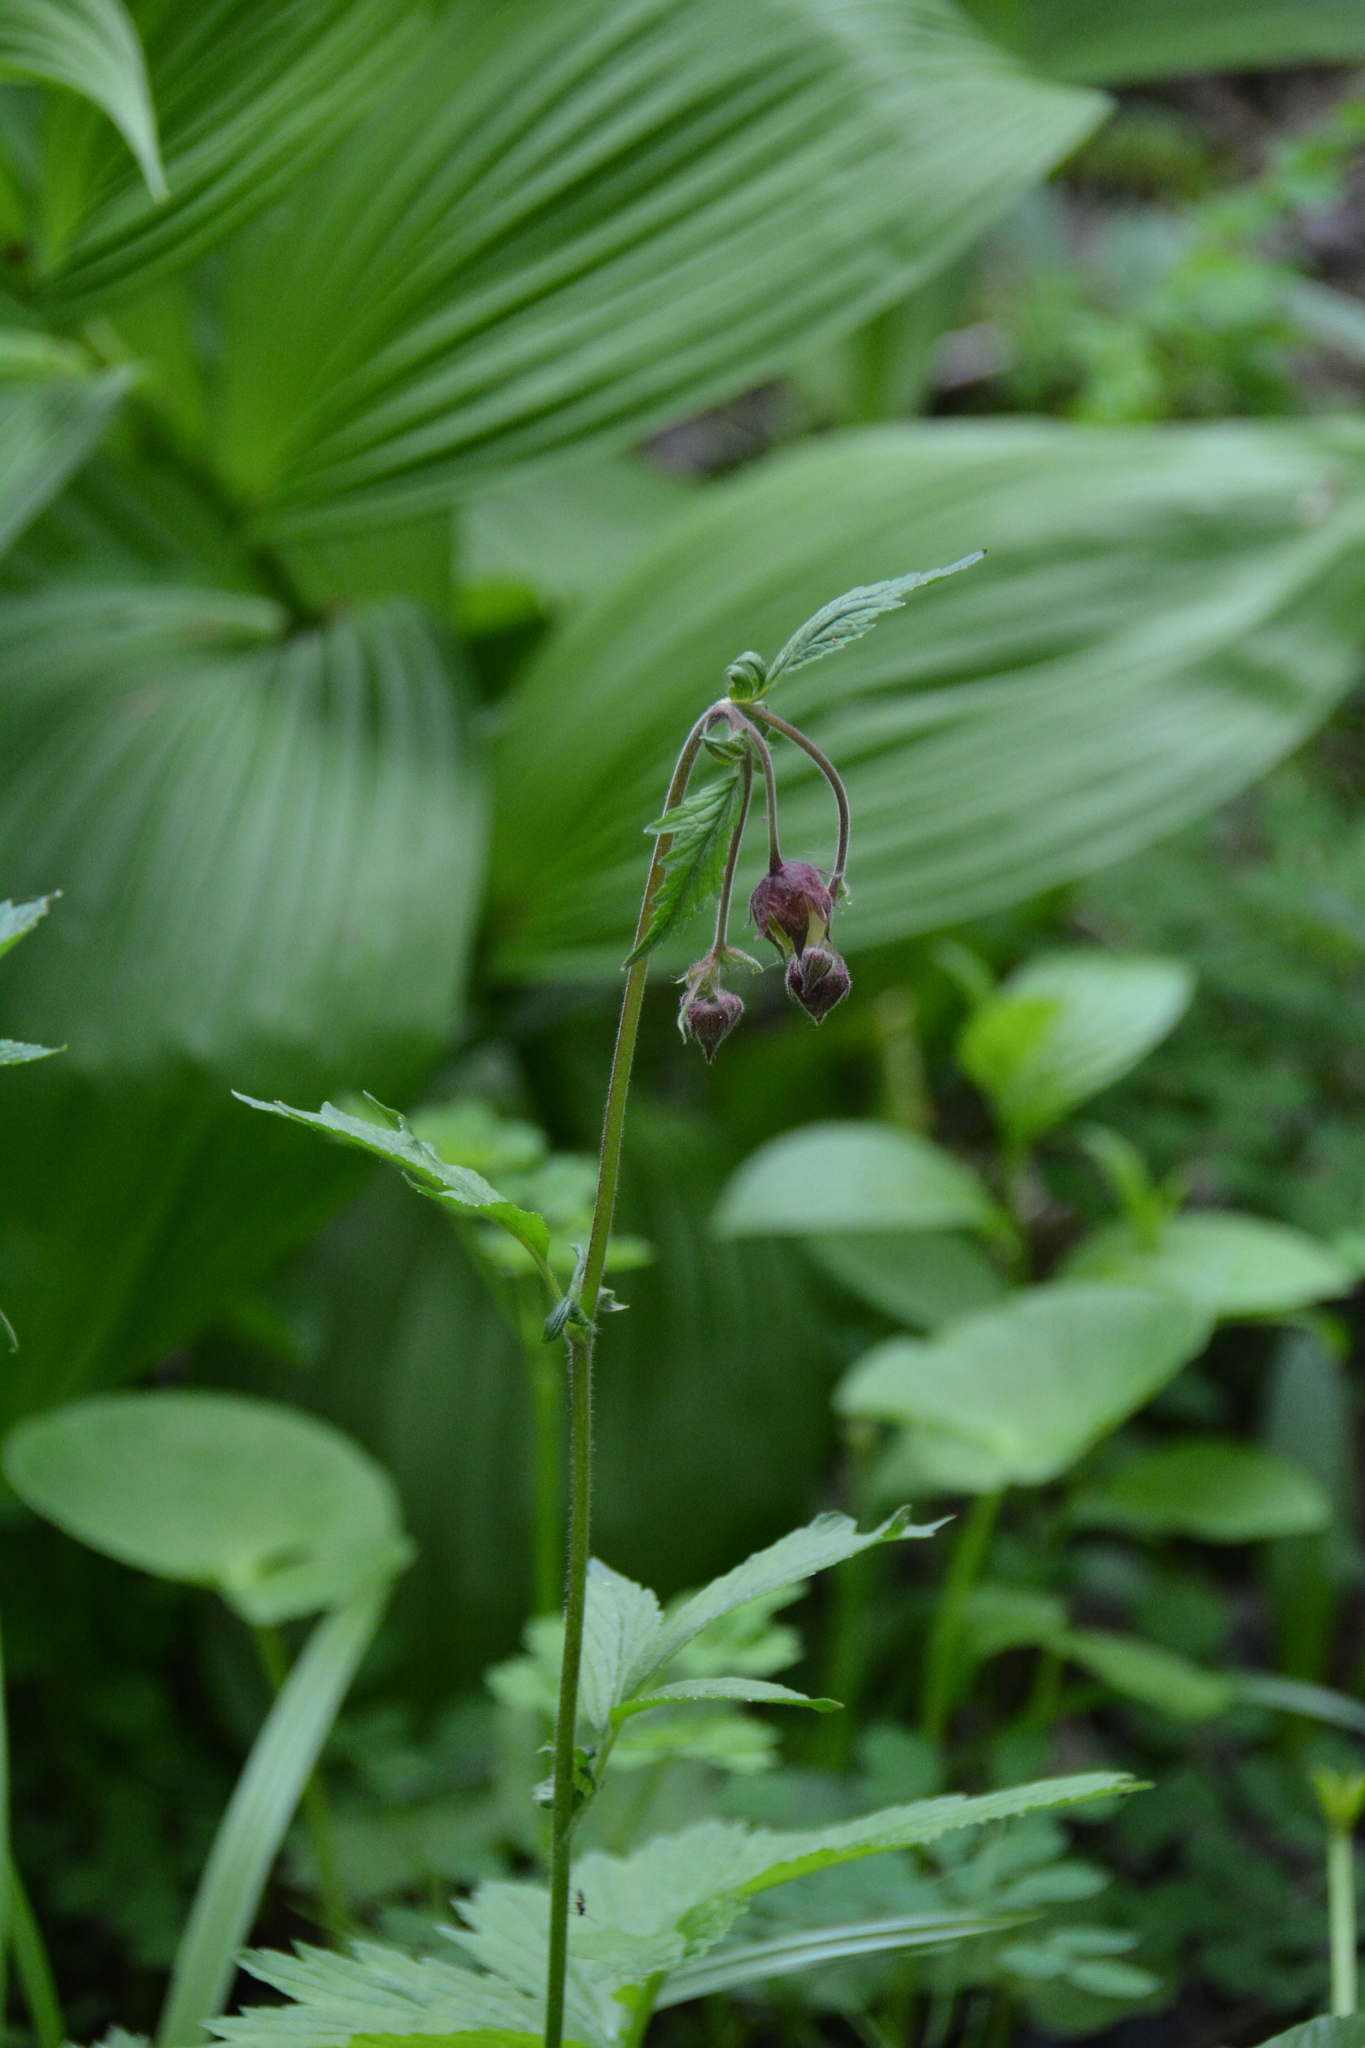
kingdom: Plantae
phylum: Tracheophyta
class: Magnoliopsida
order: Rosales
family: Rosaceae
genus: Geum
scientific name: Geum rivale
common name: Water avens
